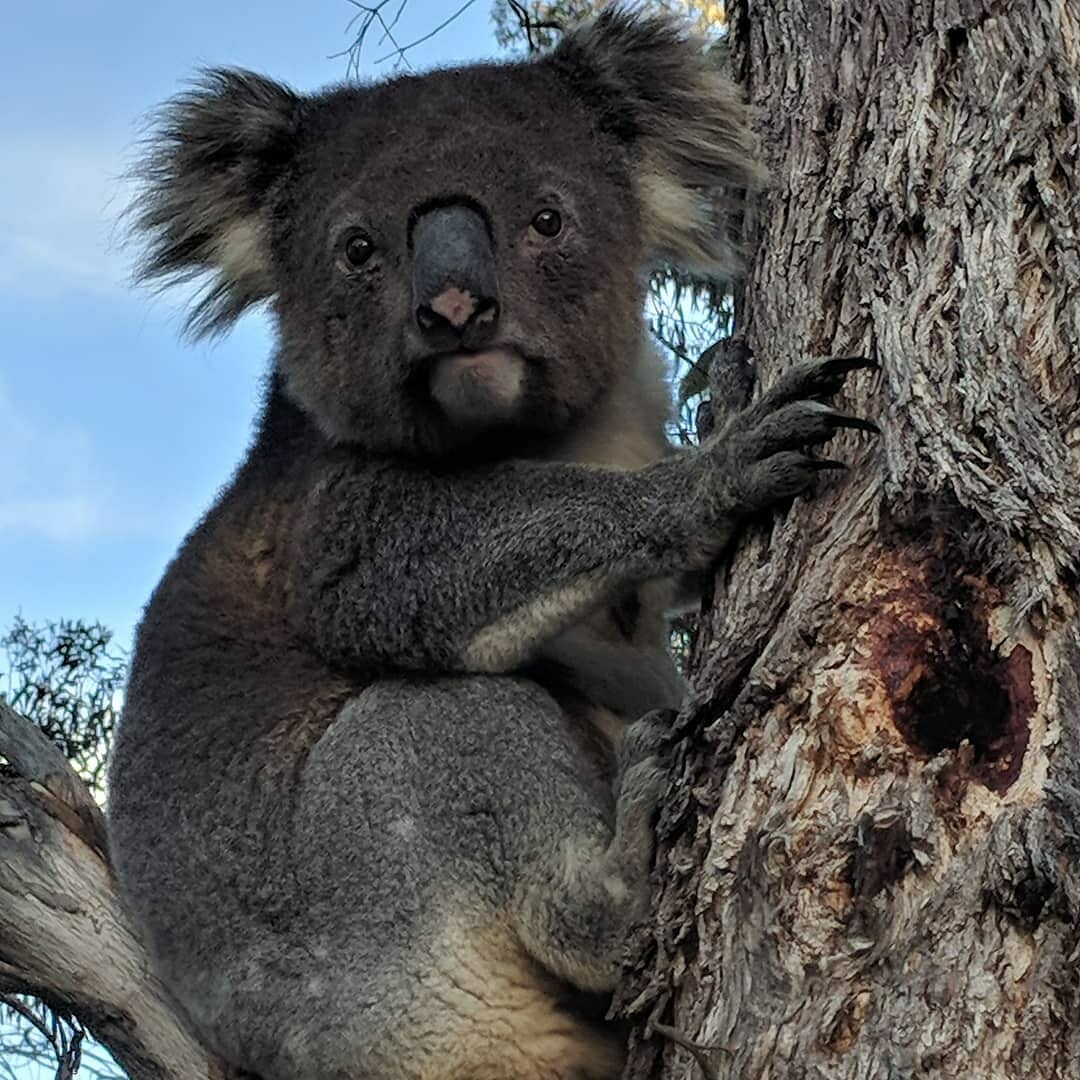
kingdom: Animalia
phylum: Chordata
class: Mammalia
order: Diprotodontia
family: Phascolarctidae
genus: Phascolarctos
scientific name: Phascolarctos cinereus
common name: Koala
